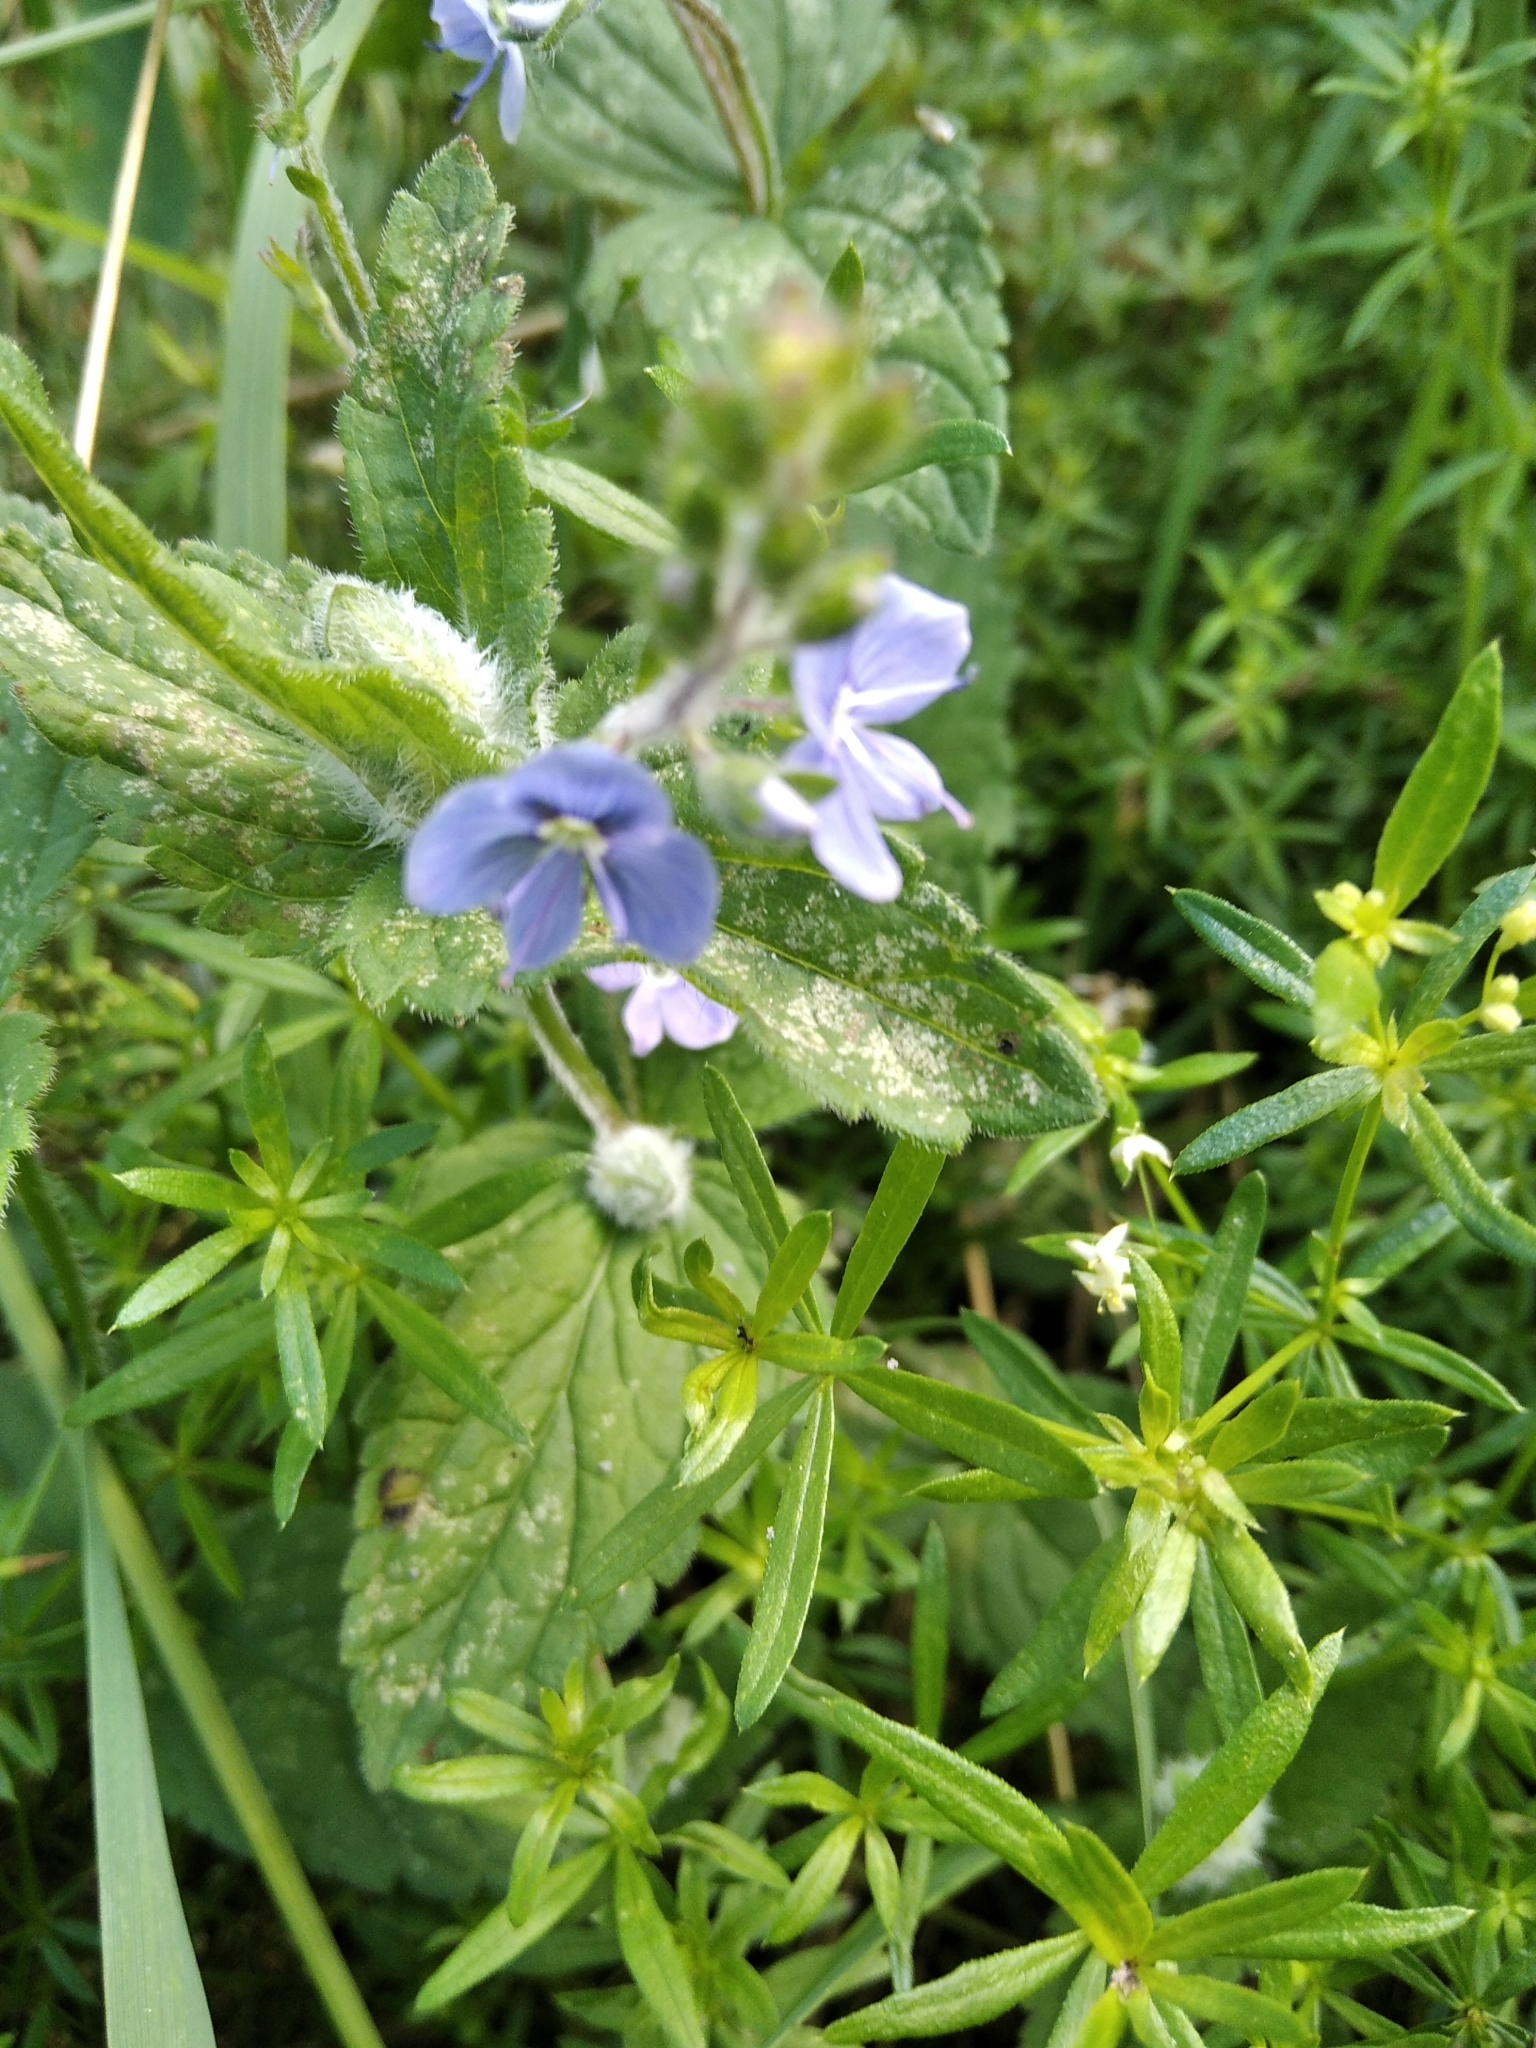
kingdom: Plantae
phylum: Tracheophyta
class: Magnoliopsida
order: Lamiales
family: Plantaginaceae
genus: Veronica
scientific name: Veronica chamaedrys
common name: Germander speedwell
